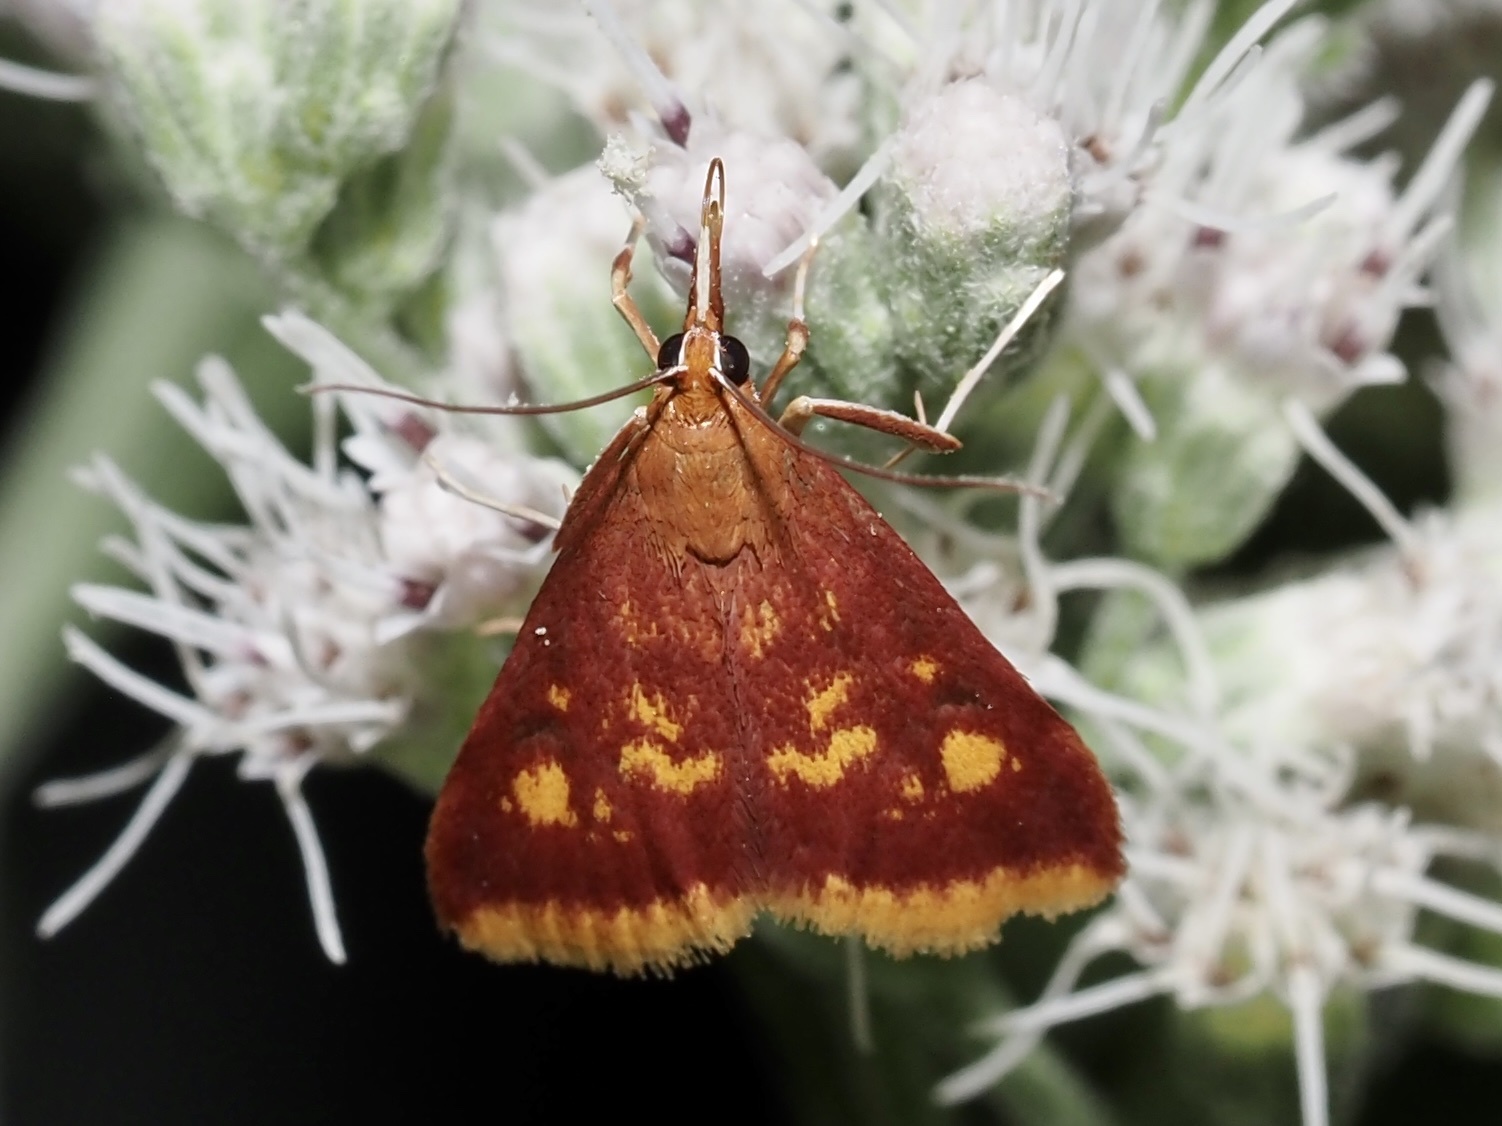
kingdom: Animalia
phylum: Arthropoda
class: Insecta
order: Lepidoptera
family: Crambidae
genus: Pyrausta
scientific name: Pyrausta acrionalis
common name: Mint-loving pyrausta moth
